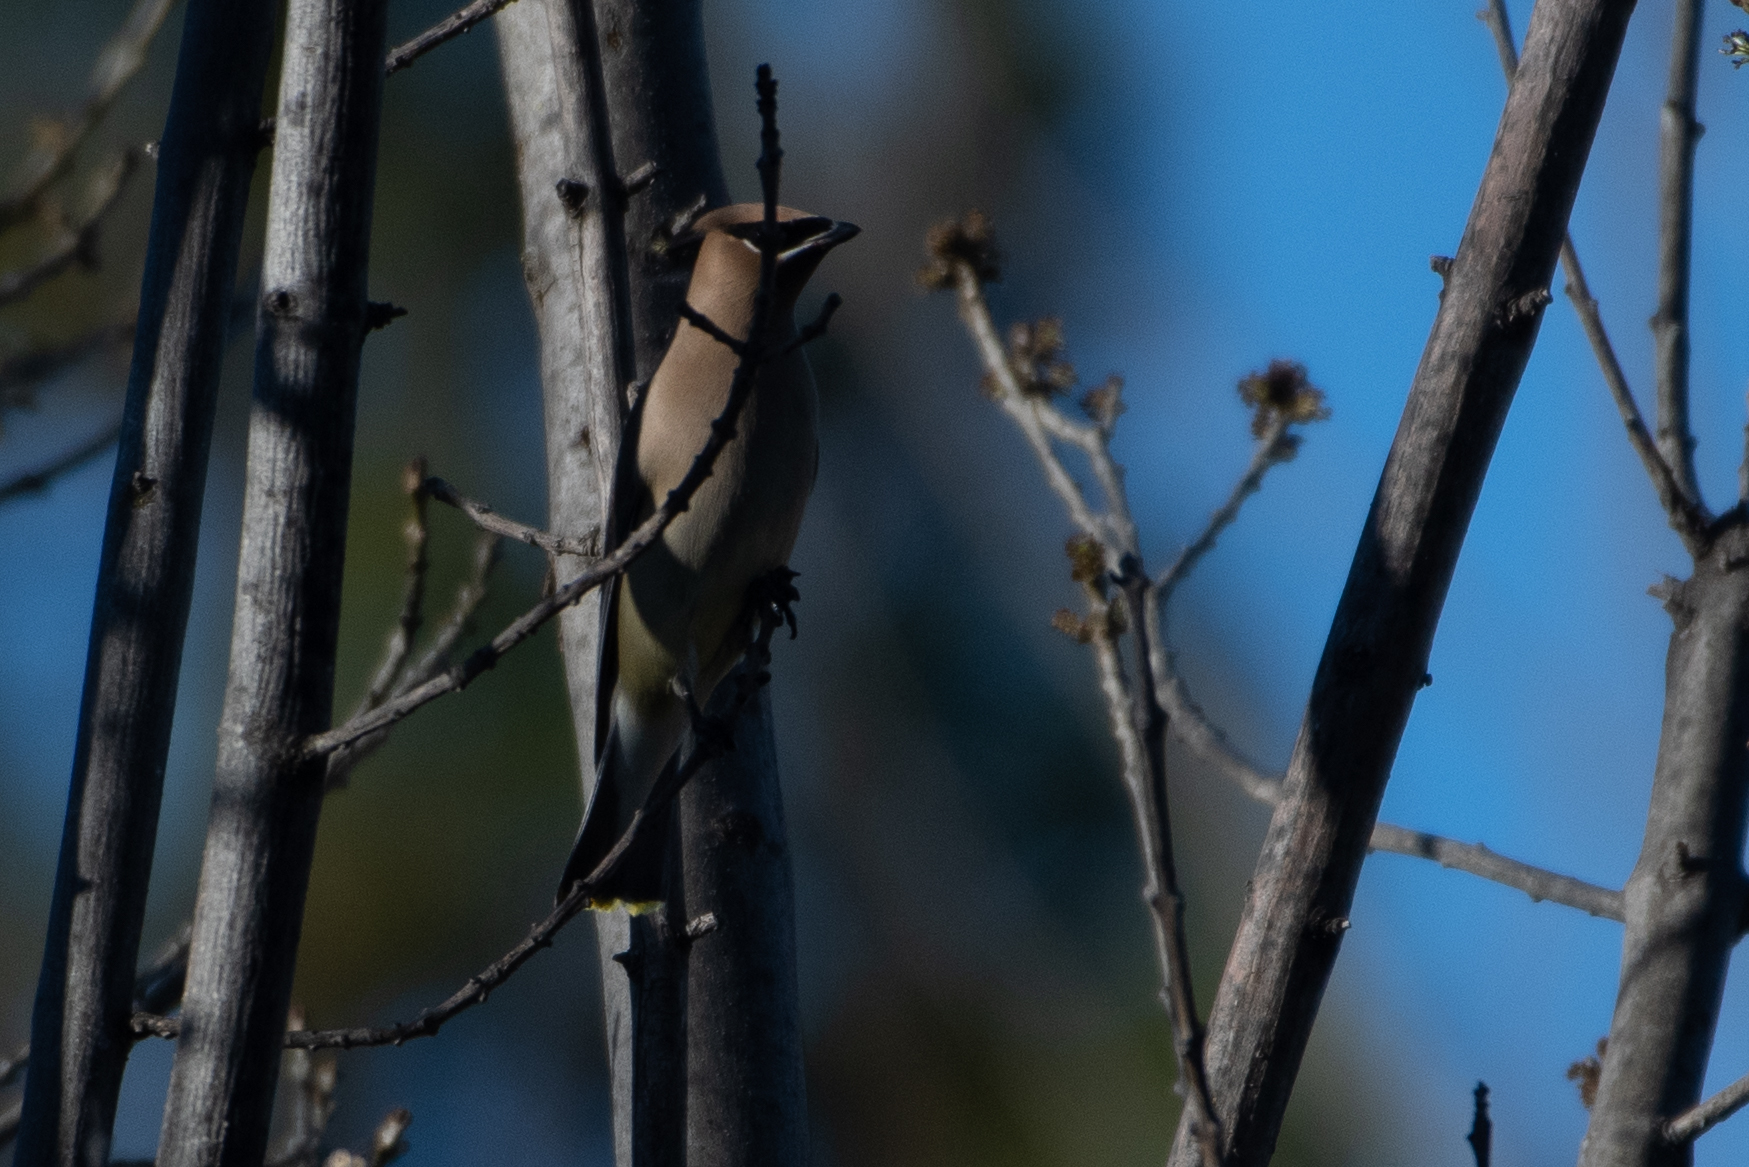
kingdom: Animalia
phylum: Chordata
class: Aves
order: Passeriformes
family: Bombycillidae
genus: Bombycilla
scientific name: Bombycilla cedrorum
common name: Cedar waxwing
